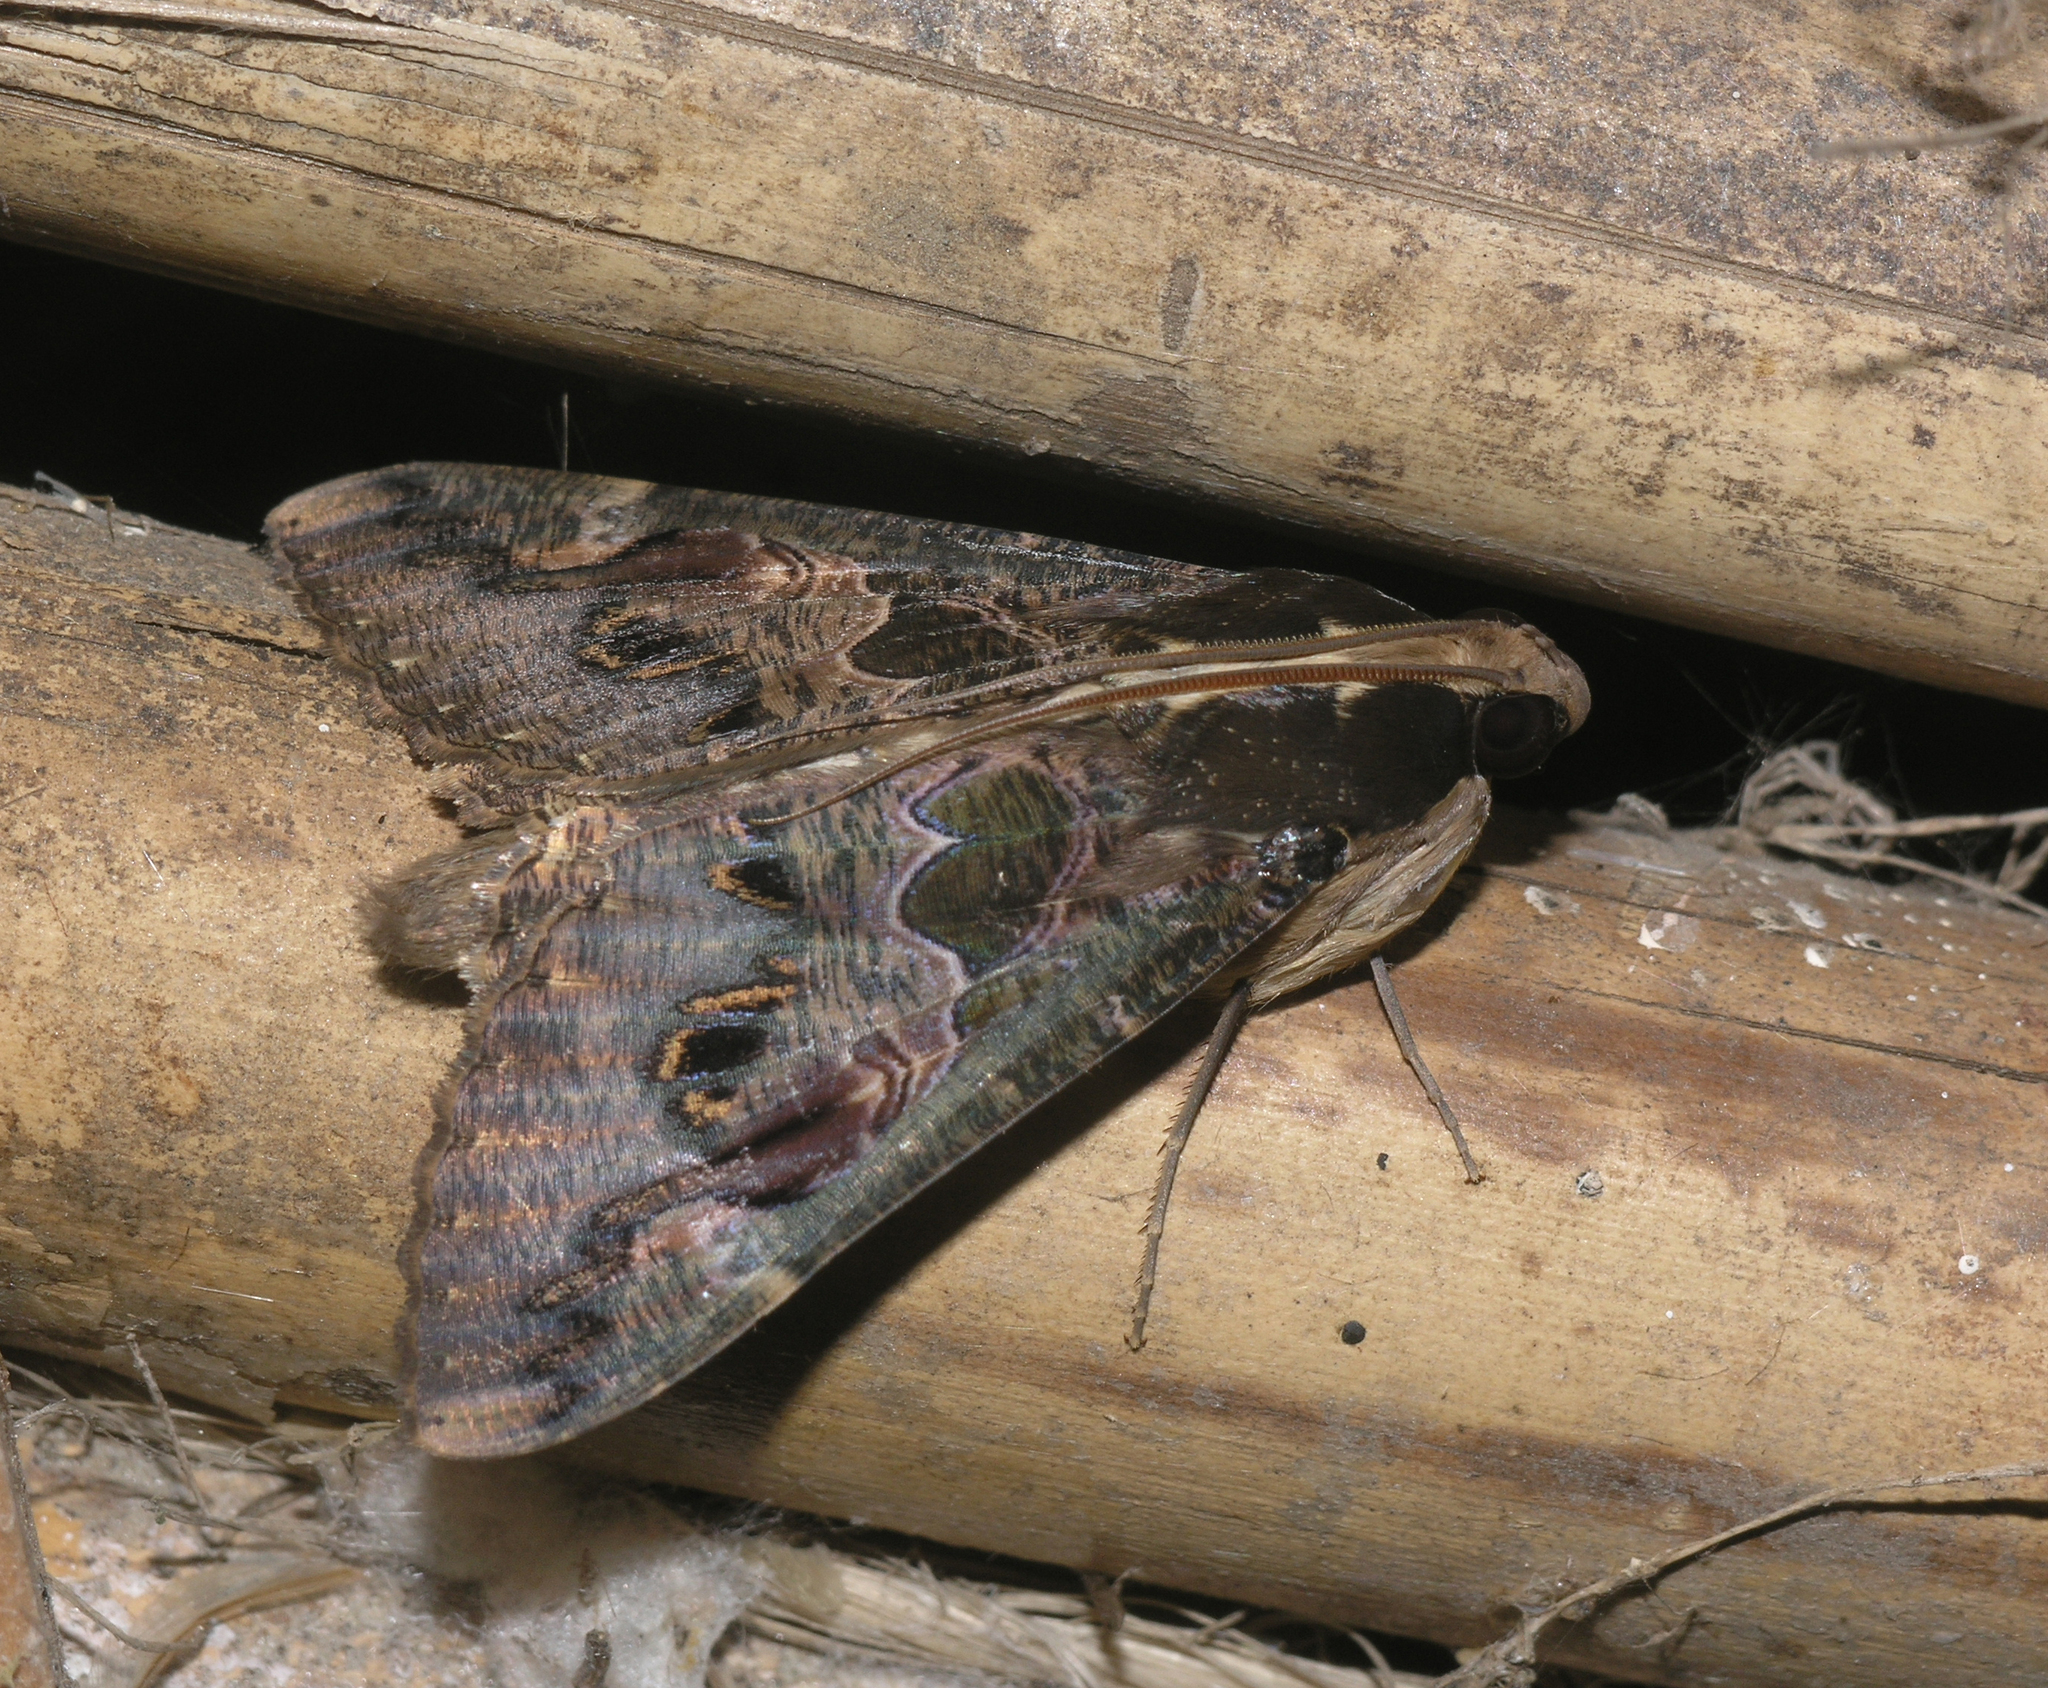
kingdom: Animalia
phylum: Arthropoda
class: Insecta
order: Lepidoptera
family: Erebidae
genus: Sphingomorpha
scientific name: Sphingomorpha chlorea
